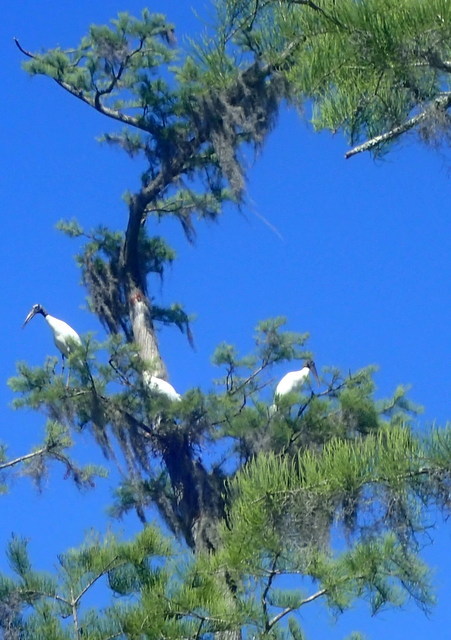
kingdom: Animalia
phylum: Chordata
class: Aves
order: Ciconiiformes
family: Ciconiidae
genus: Mycteria
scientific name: Mycteria americana
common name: Wood stork
